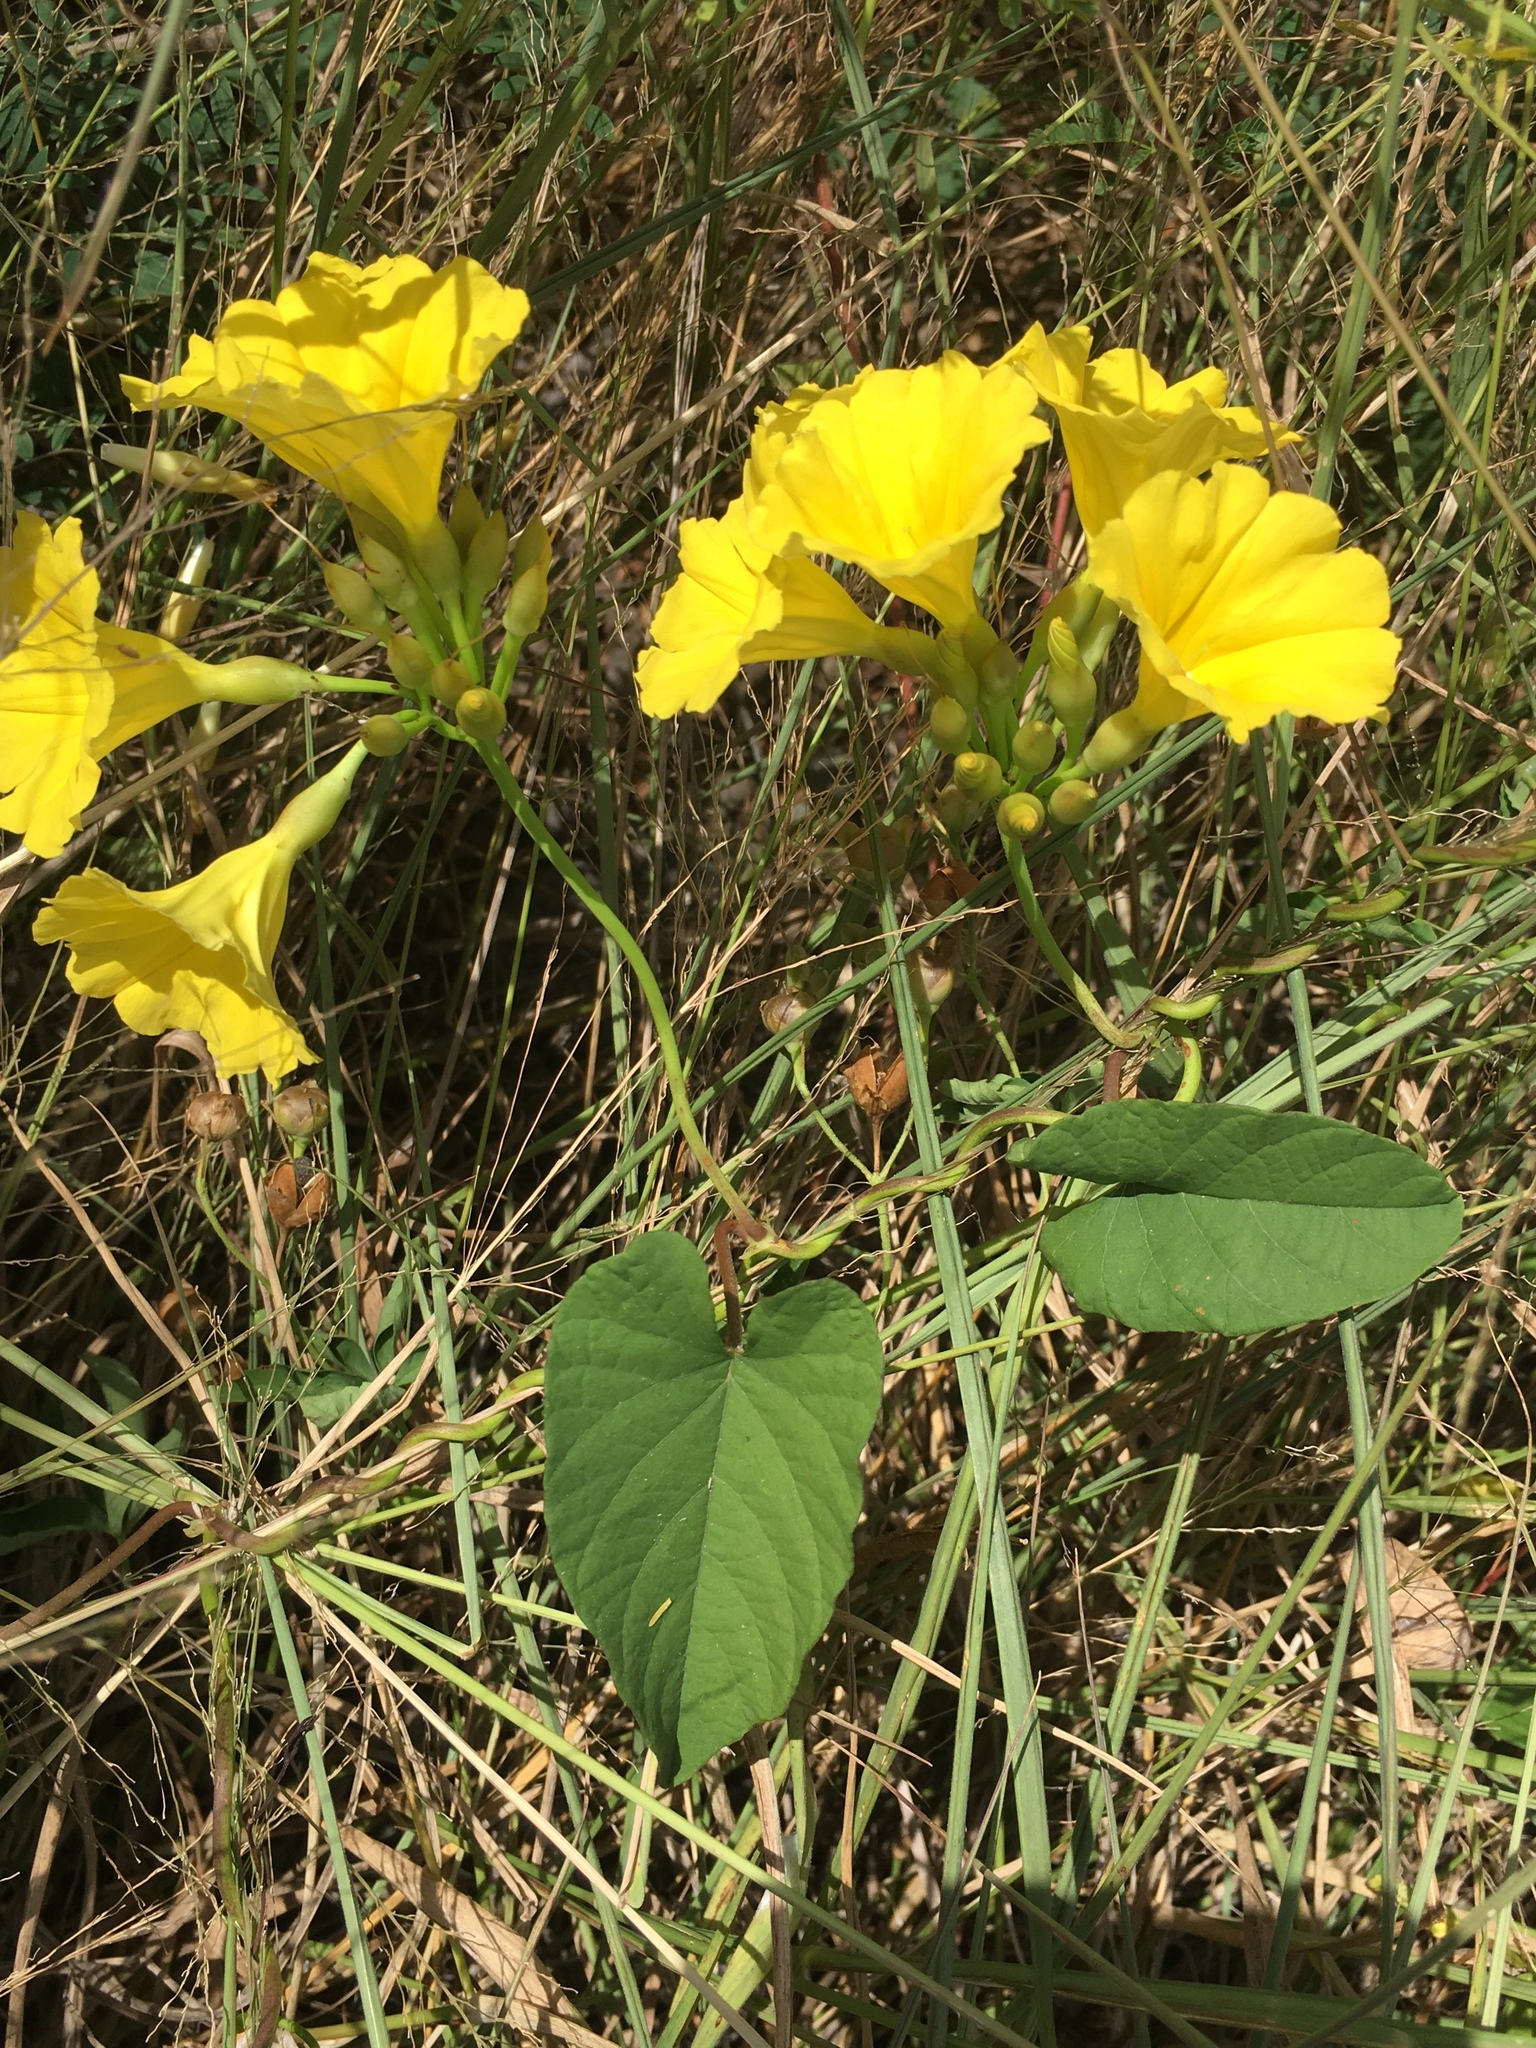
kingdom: Plantae
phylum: Tracheophyta
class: Magnoliopsida
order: Solanales
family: Convolvulaceae
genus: Camonea
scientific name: Camonea umbellata
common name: Hogvine
